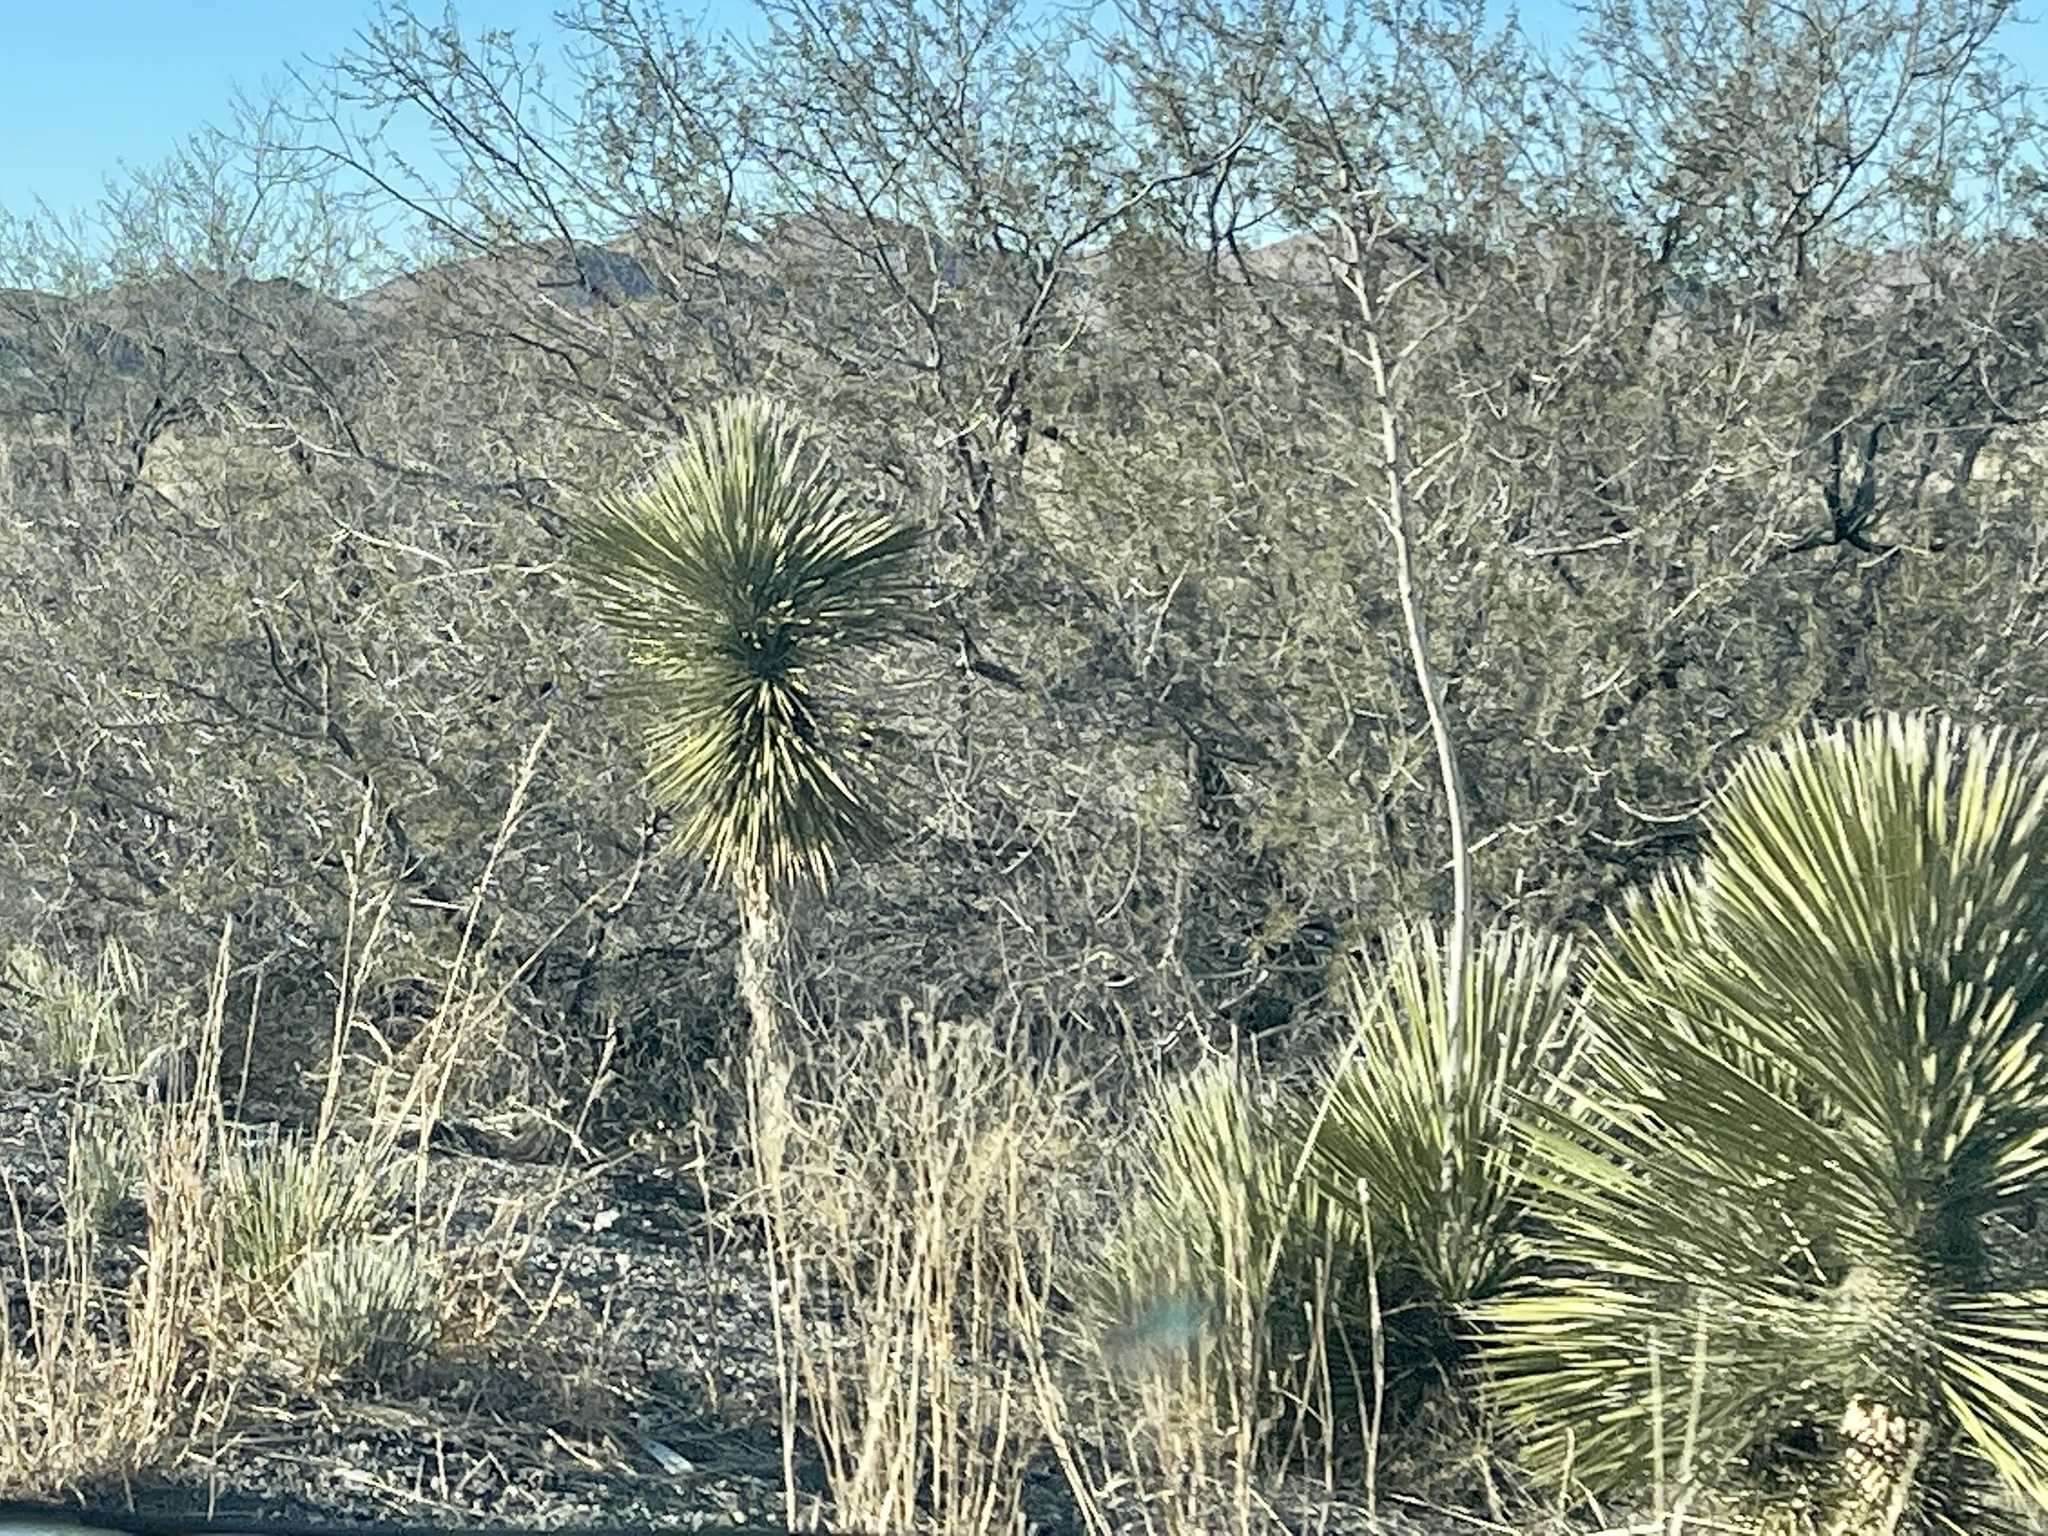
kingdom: Plantae
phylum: Tracheophyta
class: Liliopsida
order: Asparagales
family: Asparagaceae
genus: Yucca
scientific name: Yucca elata
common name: Palmella
